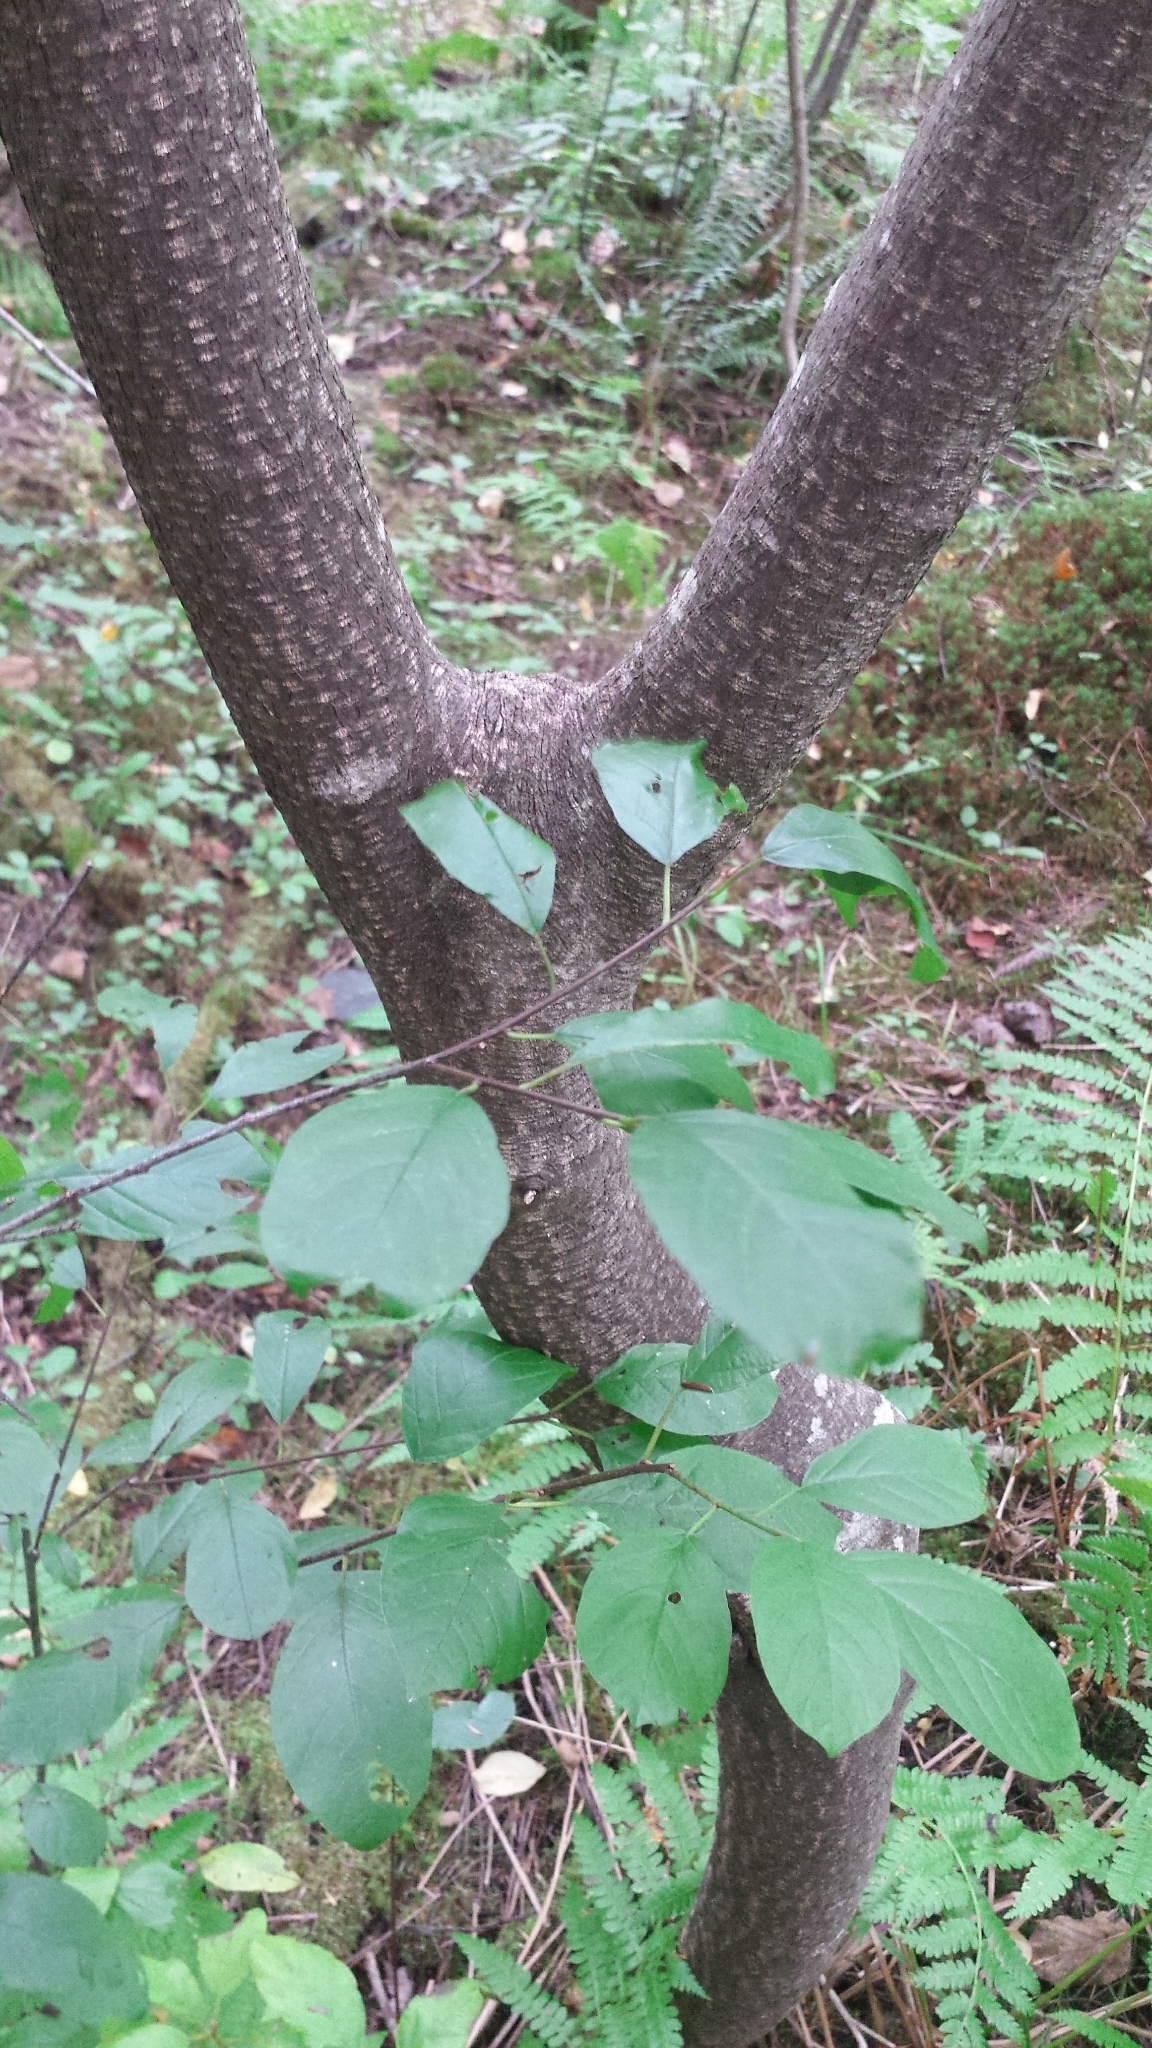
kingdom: Plantae
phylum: Tracheophyta
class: Magnoliopsida
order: Rosales
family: Rhamnaceae
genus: Frangula
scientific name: Frangula alnus
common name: Alder buckthorn
